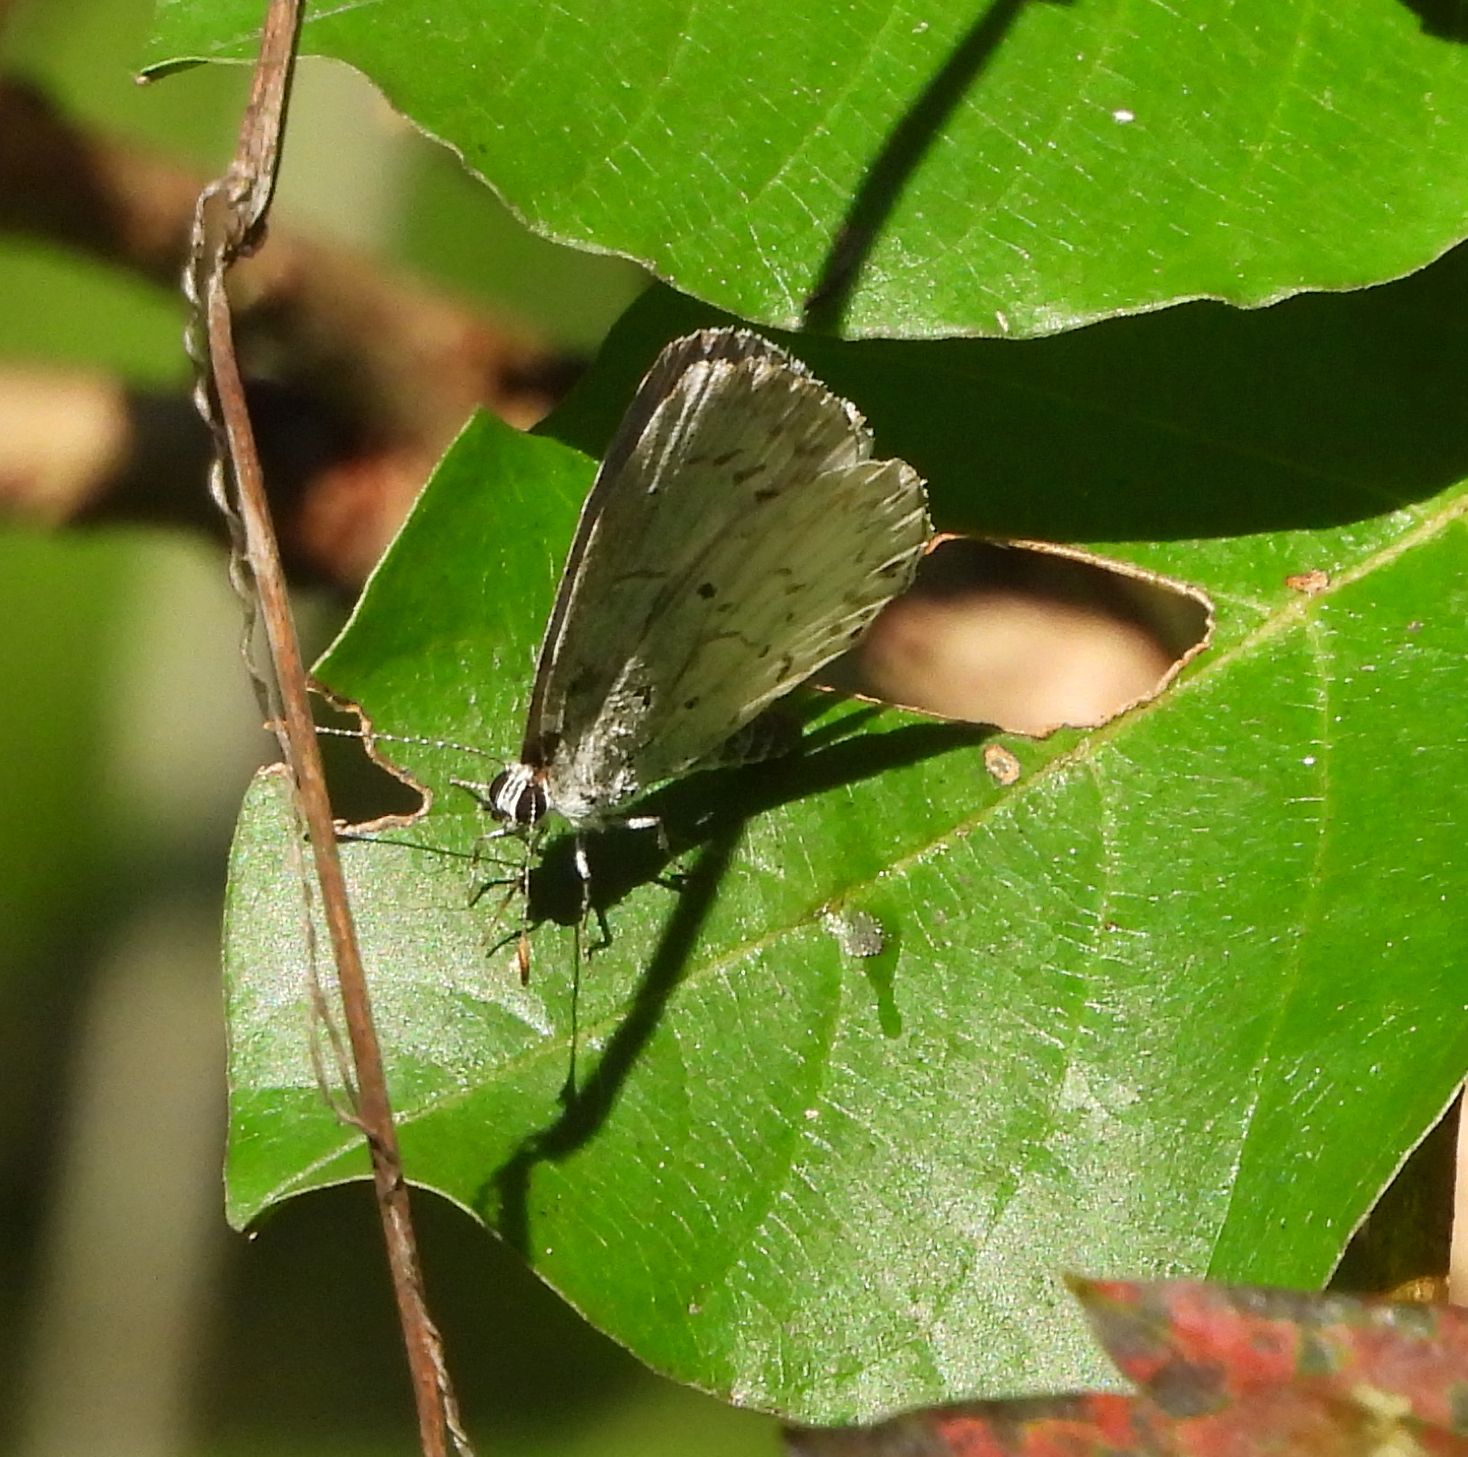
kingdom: Animalia
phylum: Arthropoda
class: Insecta
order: Lepidoptera
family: Lycaenidae
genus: Celastrina
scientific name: Celastrina lucia
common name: Lucia azure
